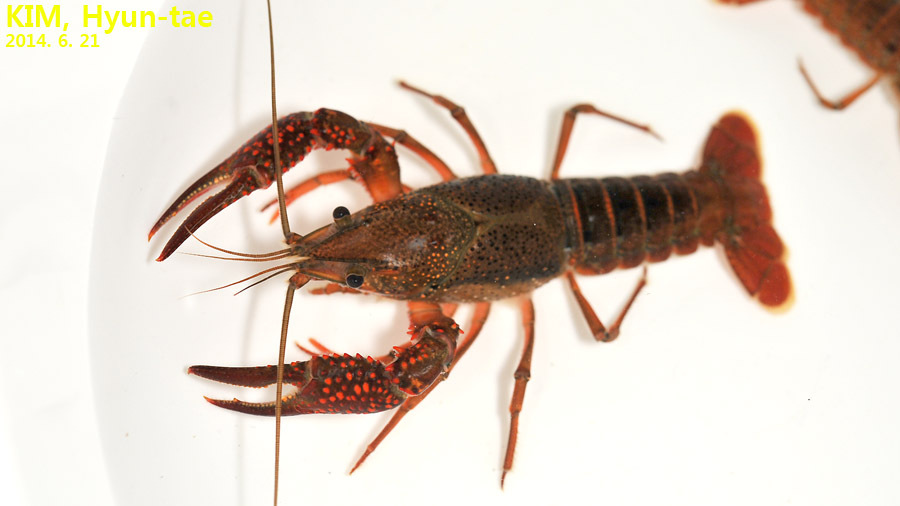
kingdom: Animalia
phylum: Arthropoda
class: Malacostraca
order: Decapoda
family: Cambaridae
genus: Procambarus
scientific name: Procambarus clarkii
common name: Red swamp crayfish
